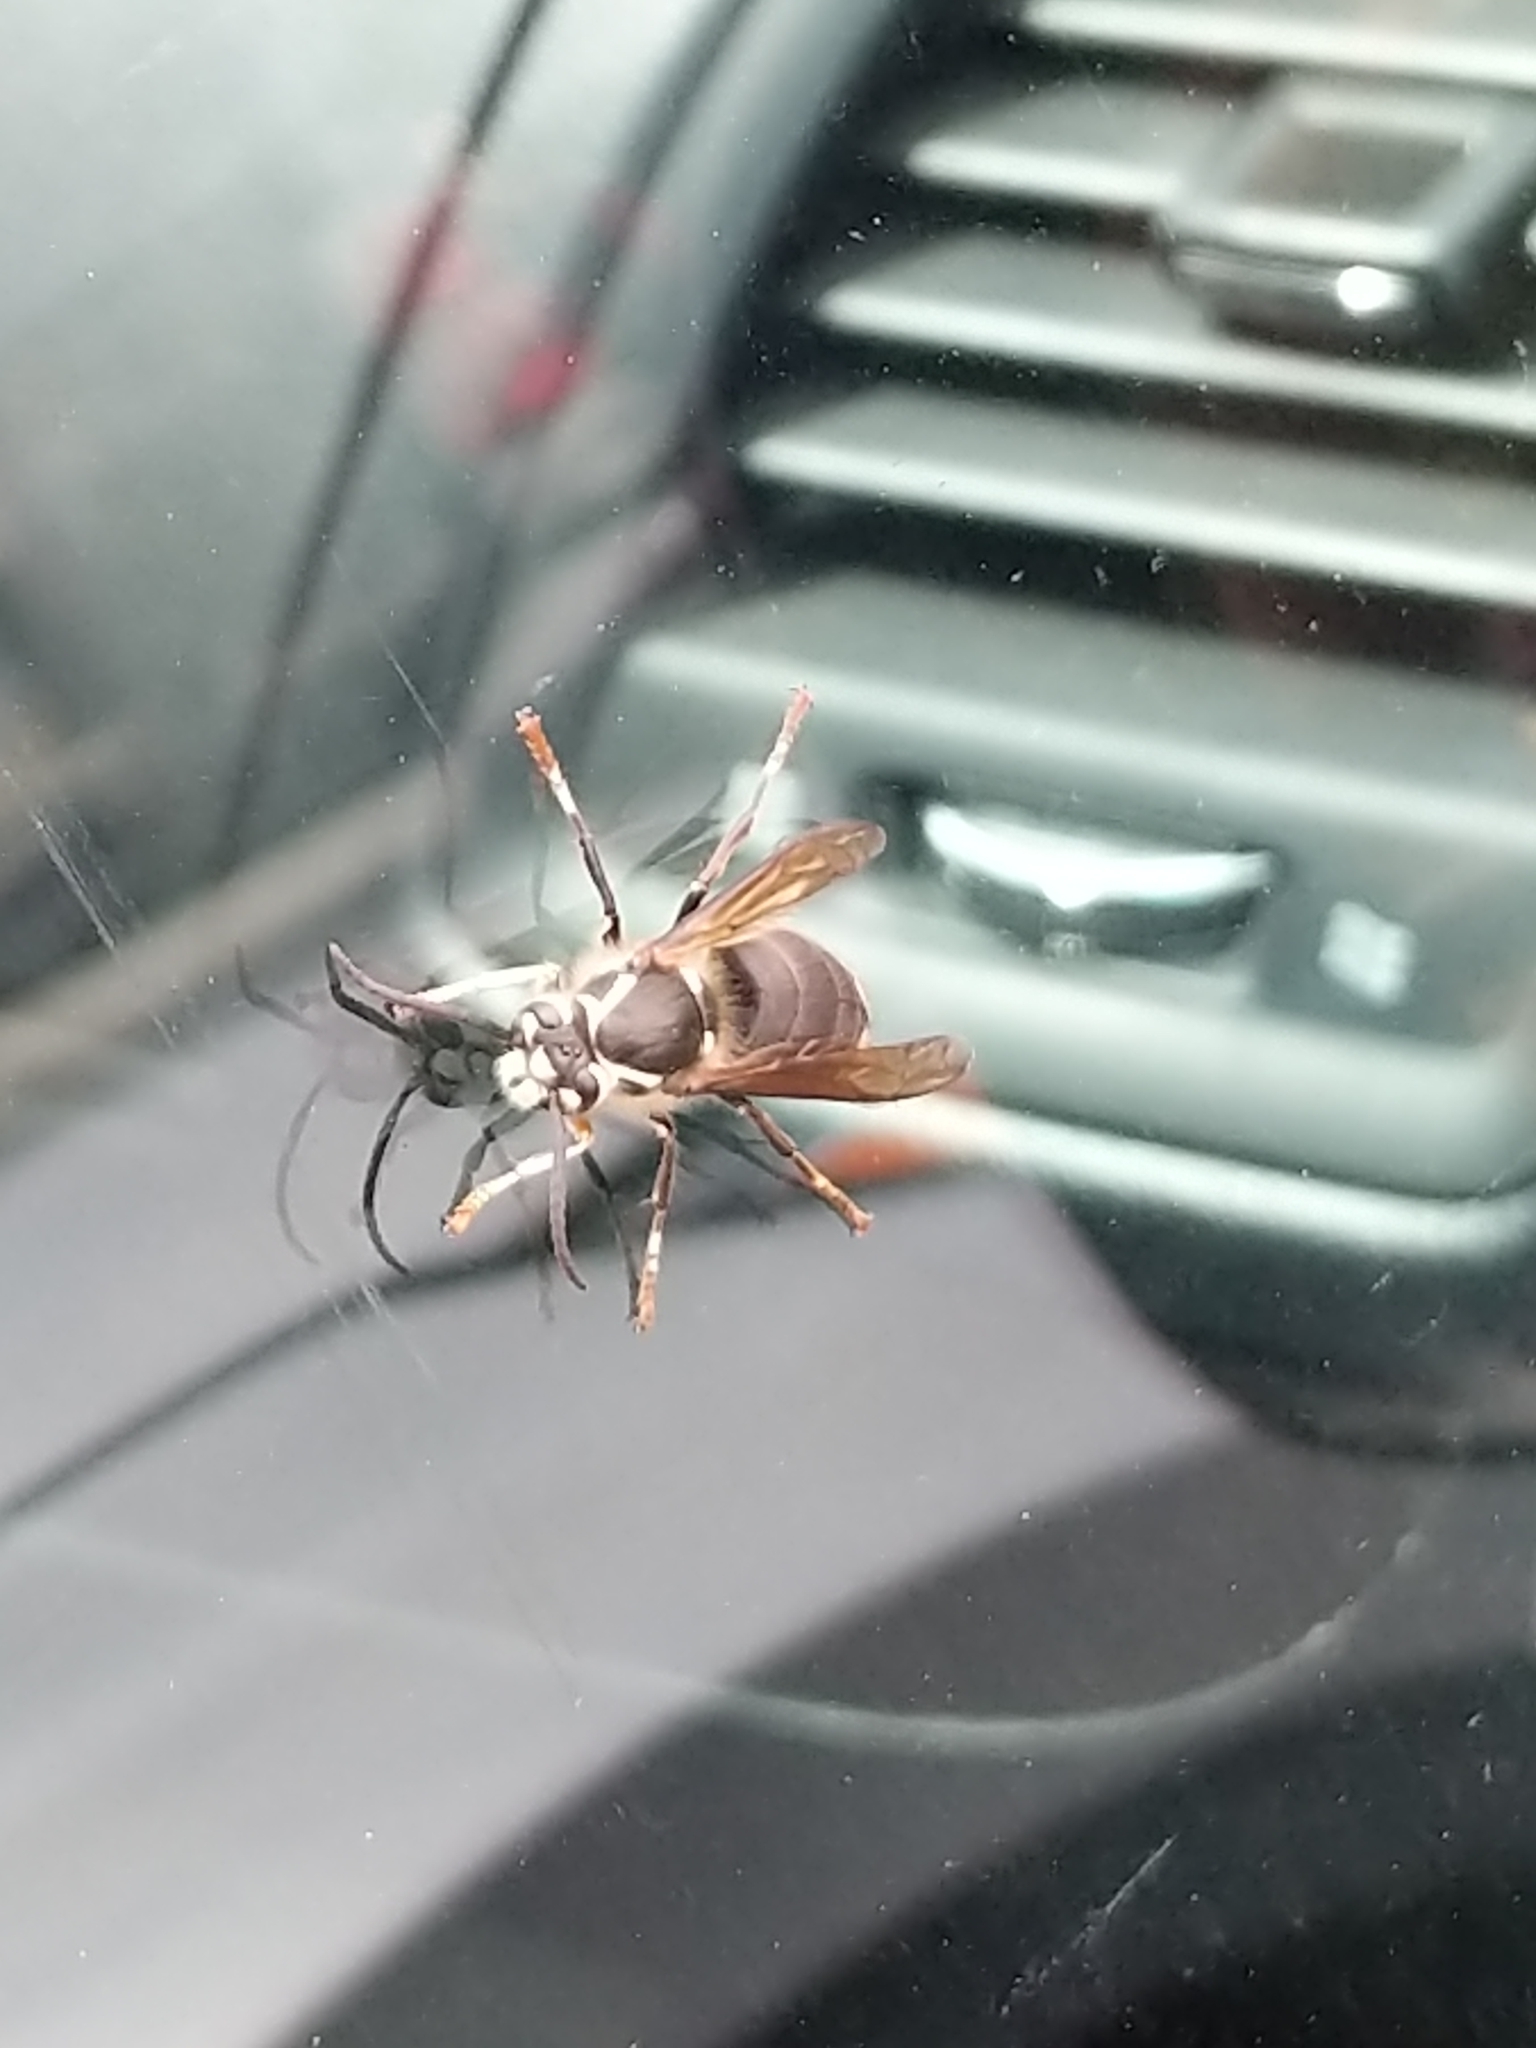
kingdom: Animalia
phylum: Arthropoda
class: Insecta
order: Hymenoptera
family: Vespidae
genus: Dolichovespula
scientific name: Dolichovespula maculata
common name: Bald-faced hornet
